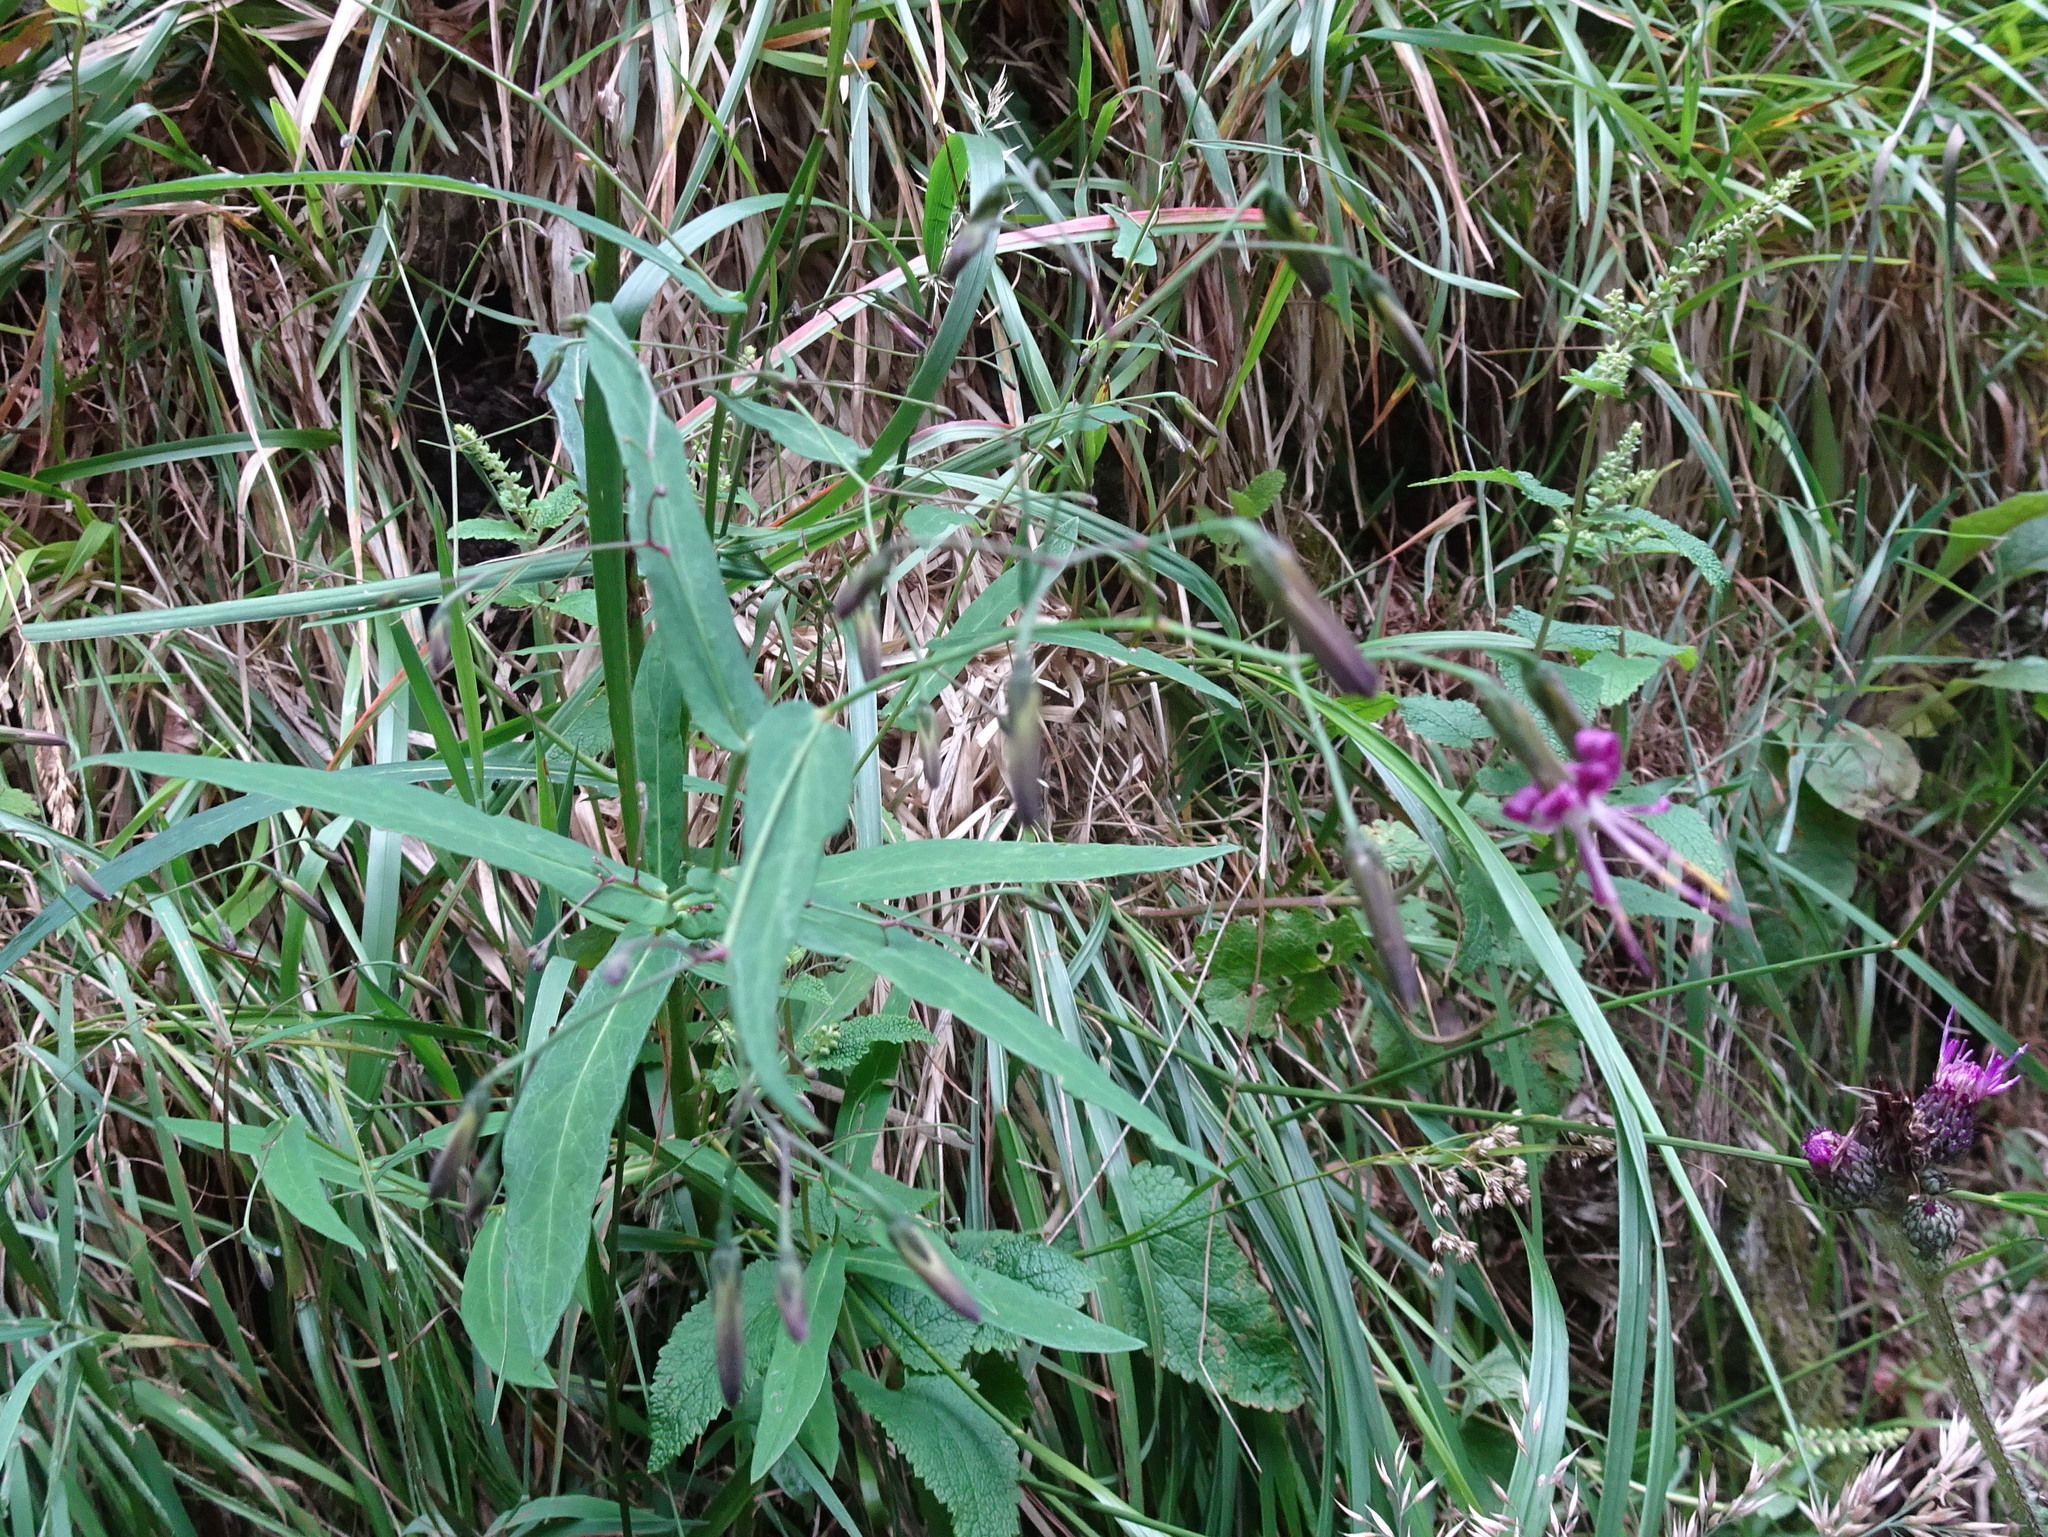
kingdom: Plantae
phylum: Tracheophyta
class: Magnoliopsida
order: Asterales
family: Asteraceae
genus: Prenanthes
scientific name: Prenanthes purpurea
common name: Purple lettuce
